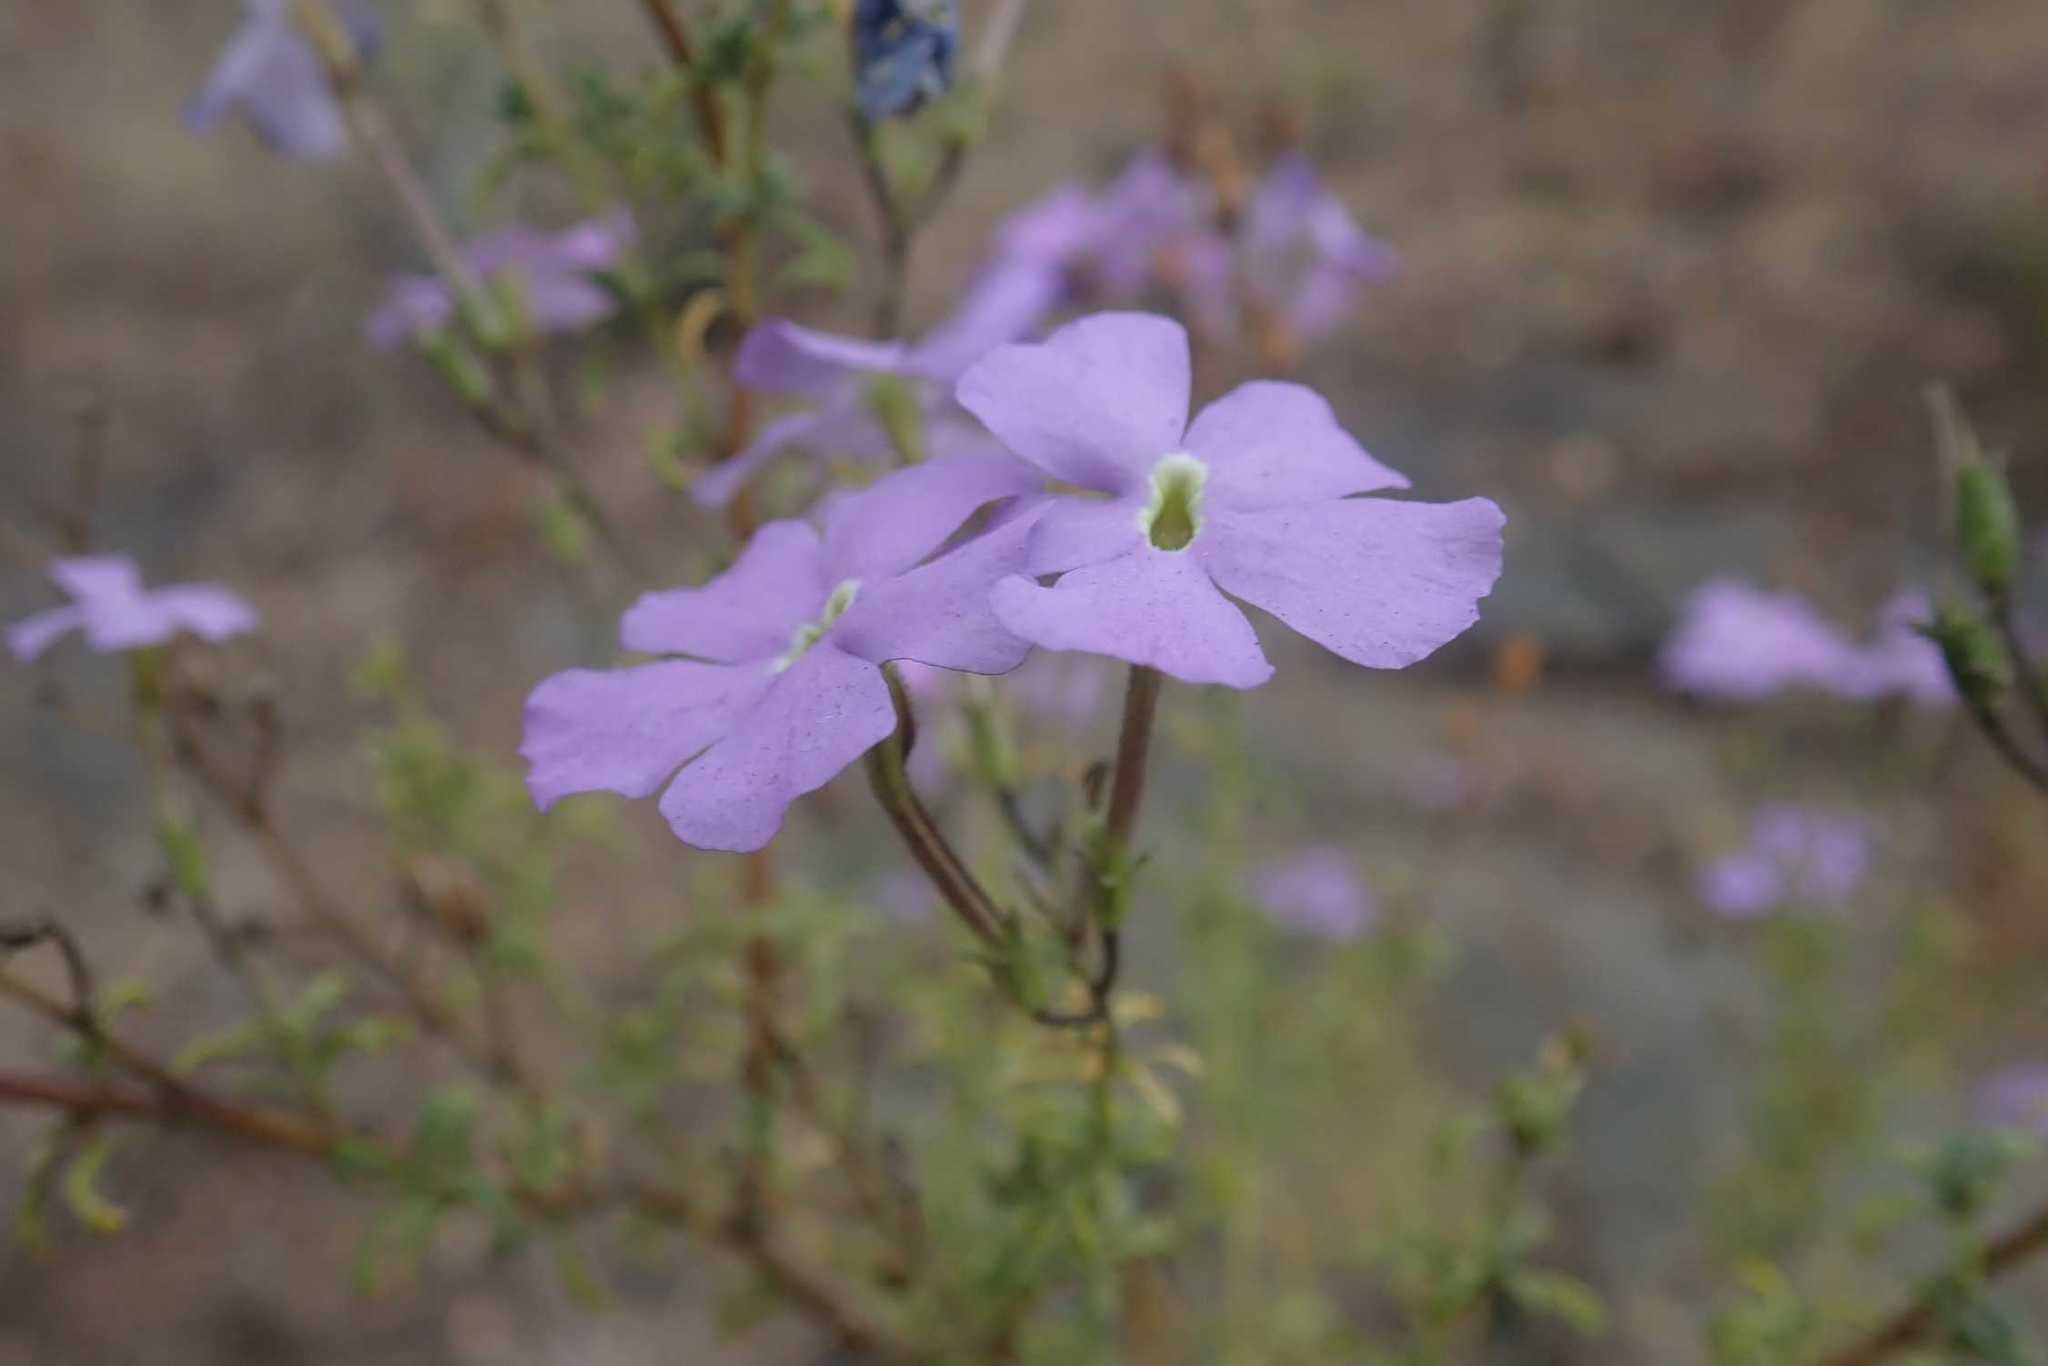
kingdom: Plantae
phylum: Tracheophyta
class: Magnoliopsida
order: Lamiales
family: Scrophulariaceae
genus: Jamesbrittenia
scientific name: Jamesbrittenia macrantha
